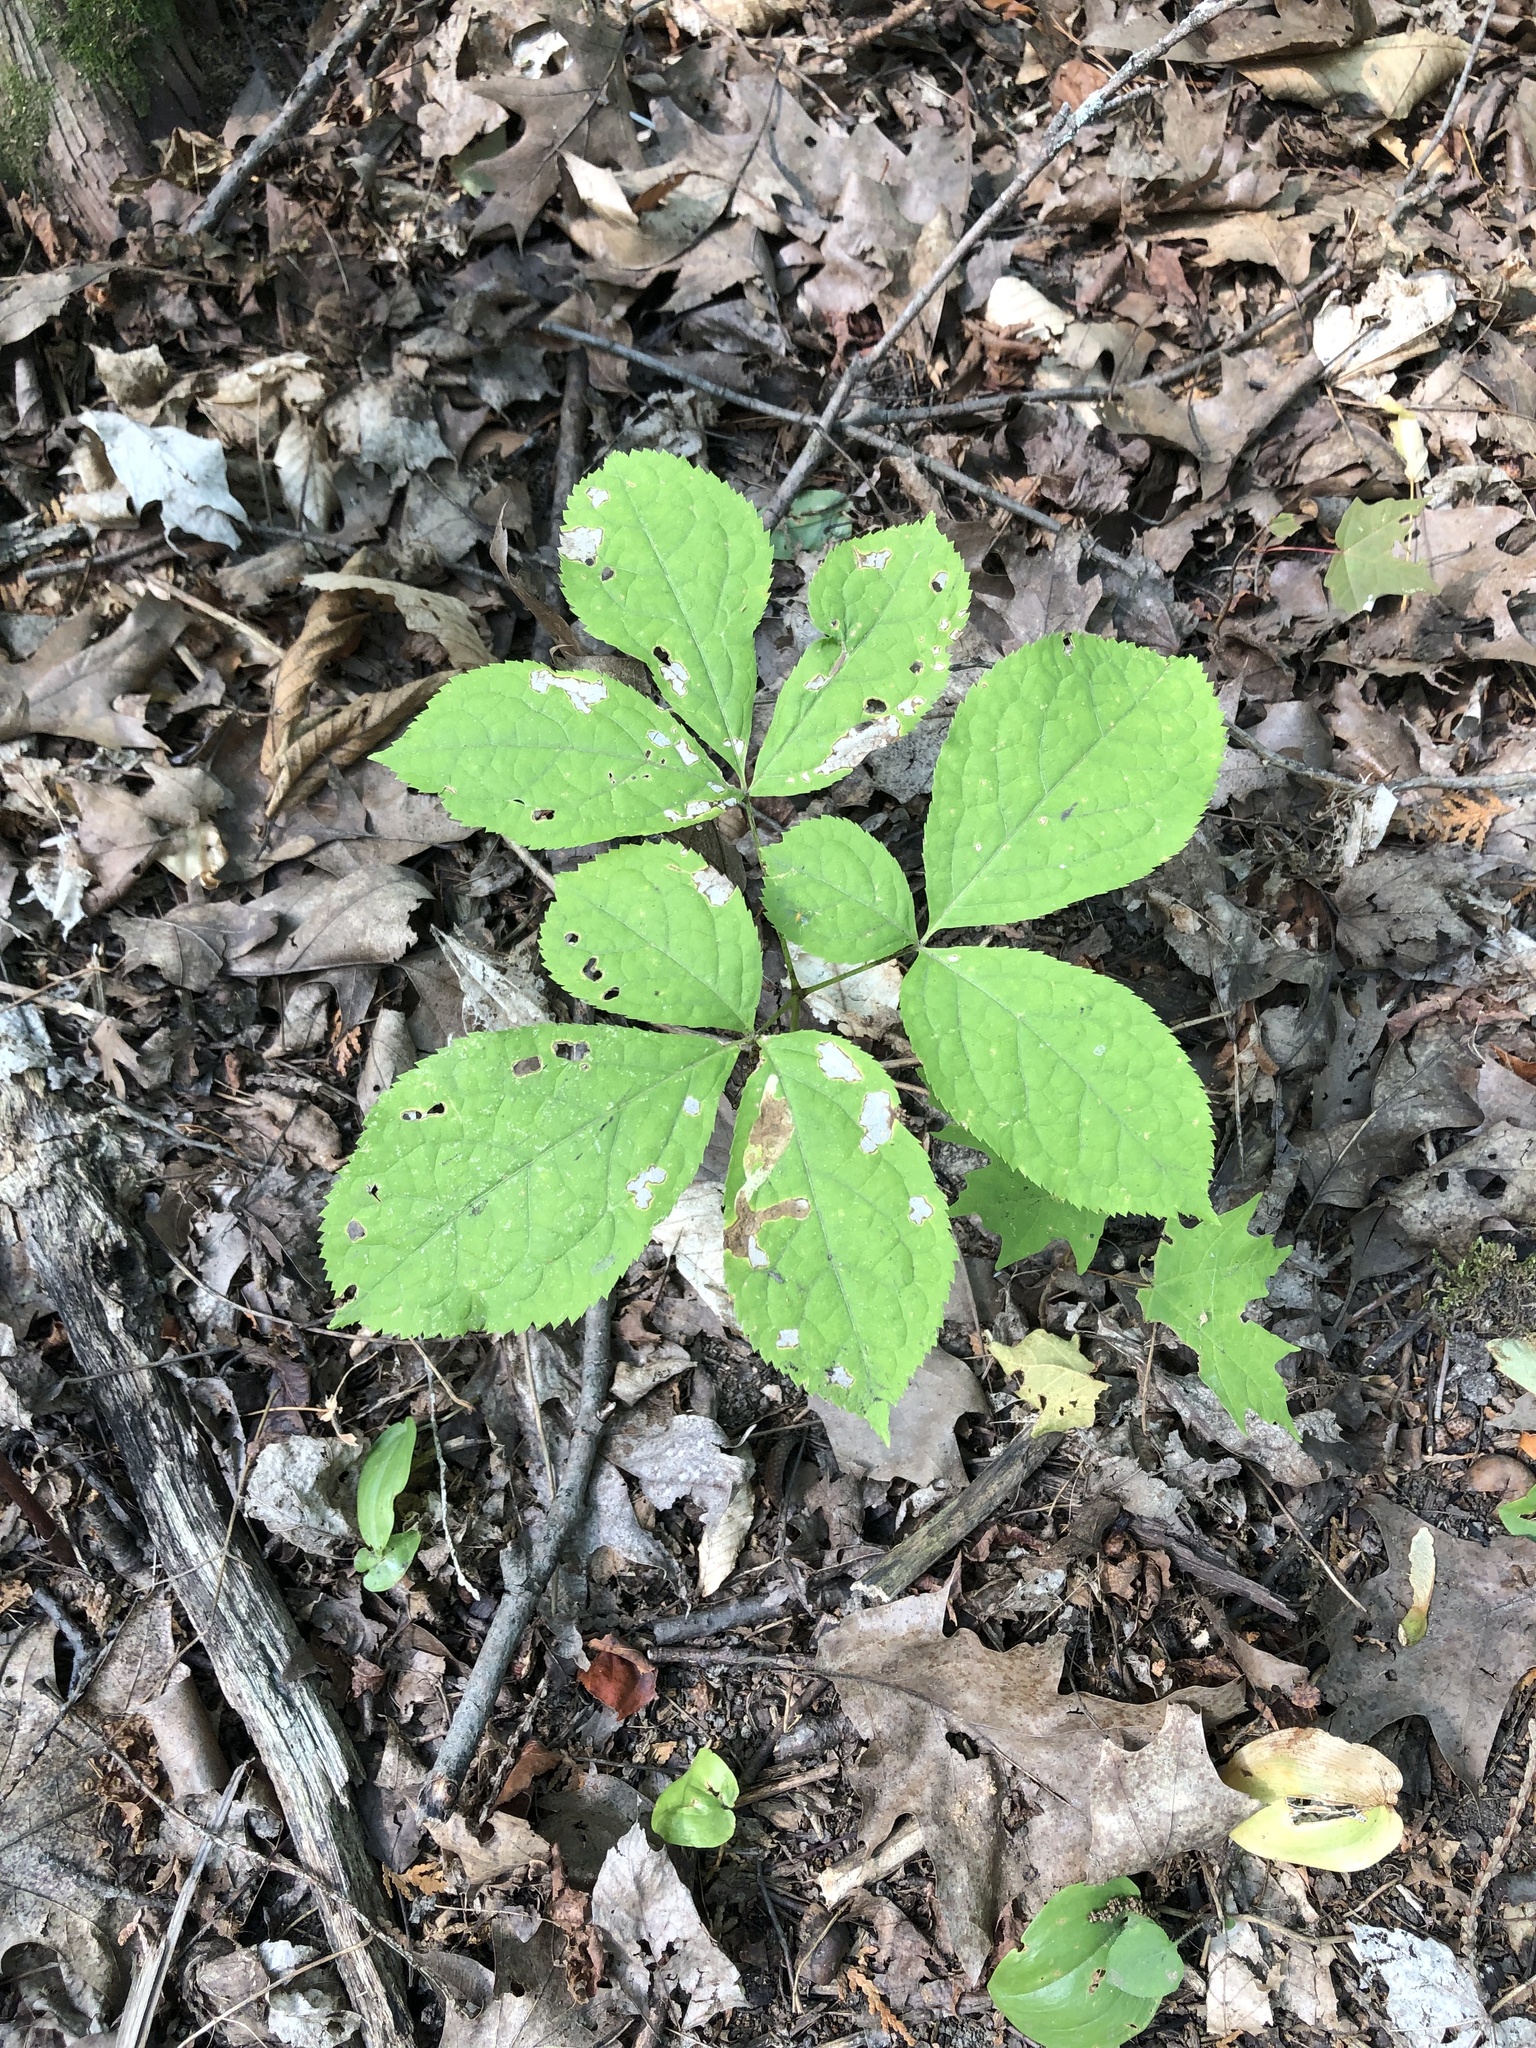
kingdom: Plantae
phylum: Tracheophyta
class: Magnoliopsida
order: Apiales
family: Araliaceae
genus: Aralia
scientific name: Aralia nudicaulis
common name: Wild sarsaparilla
